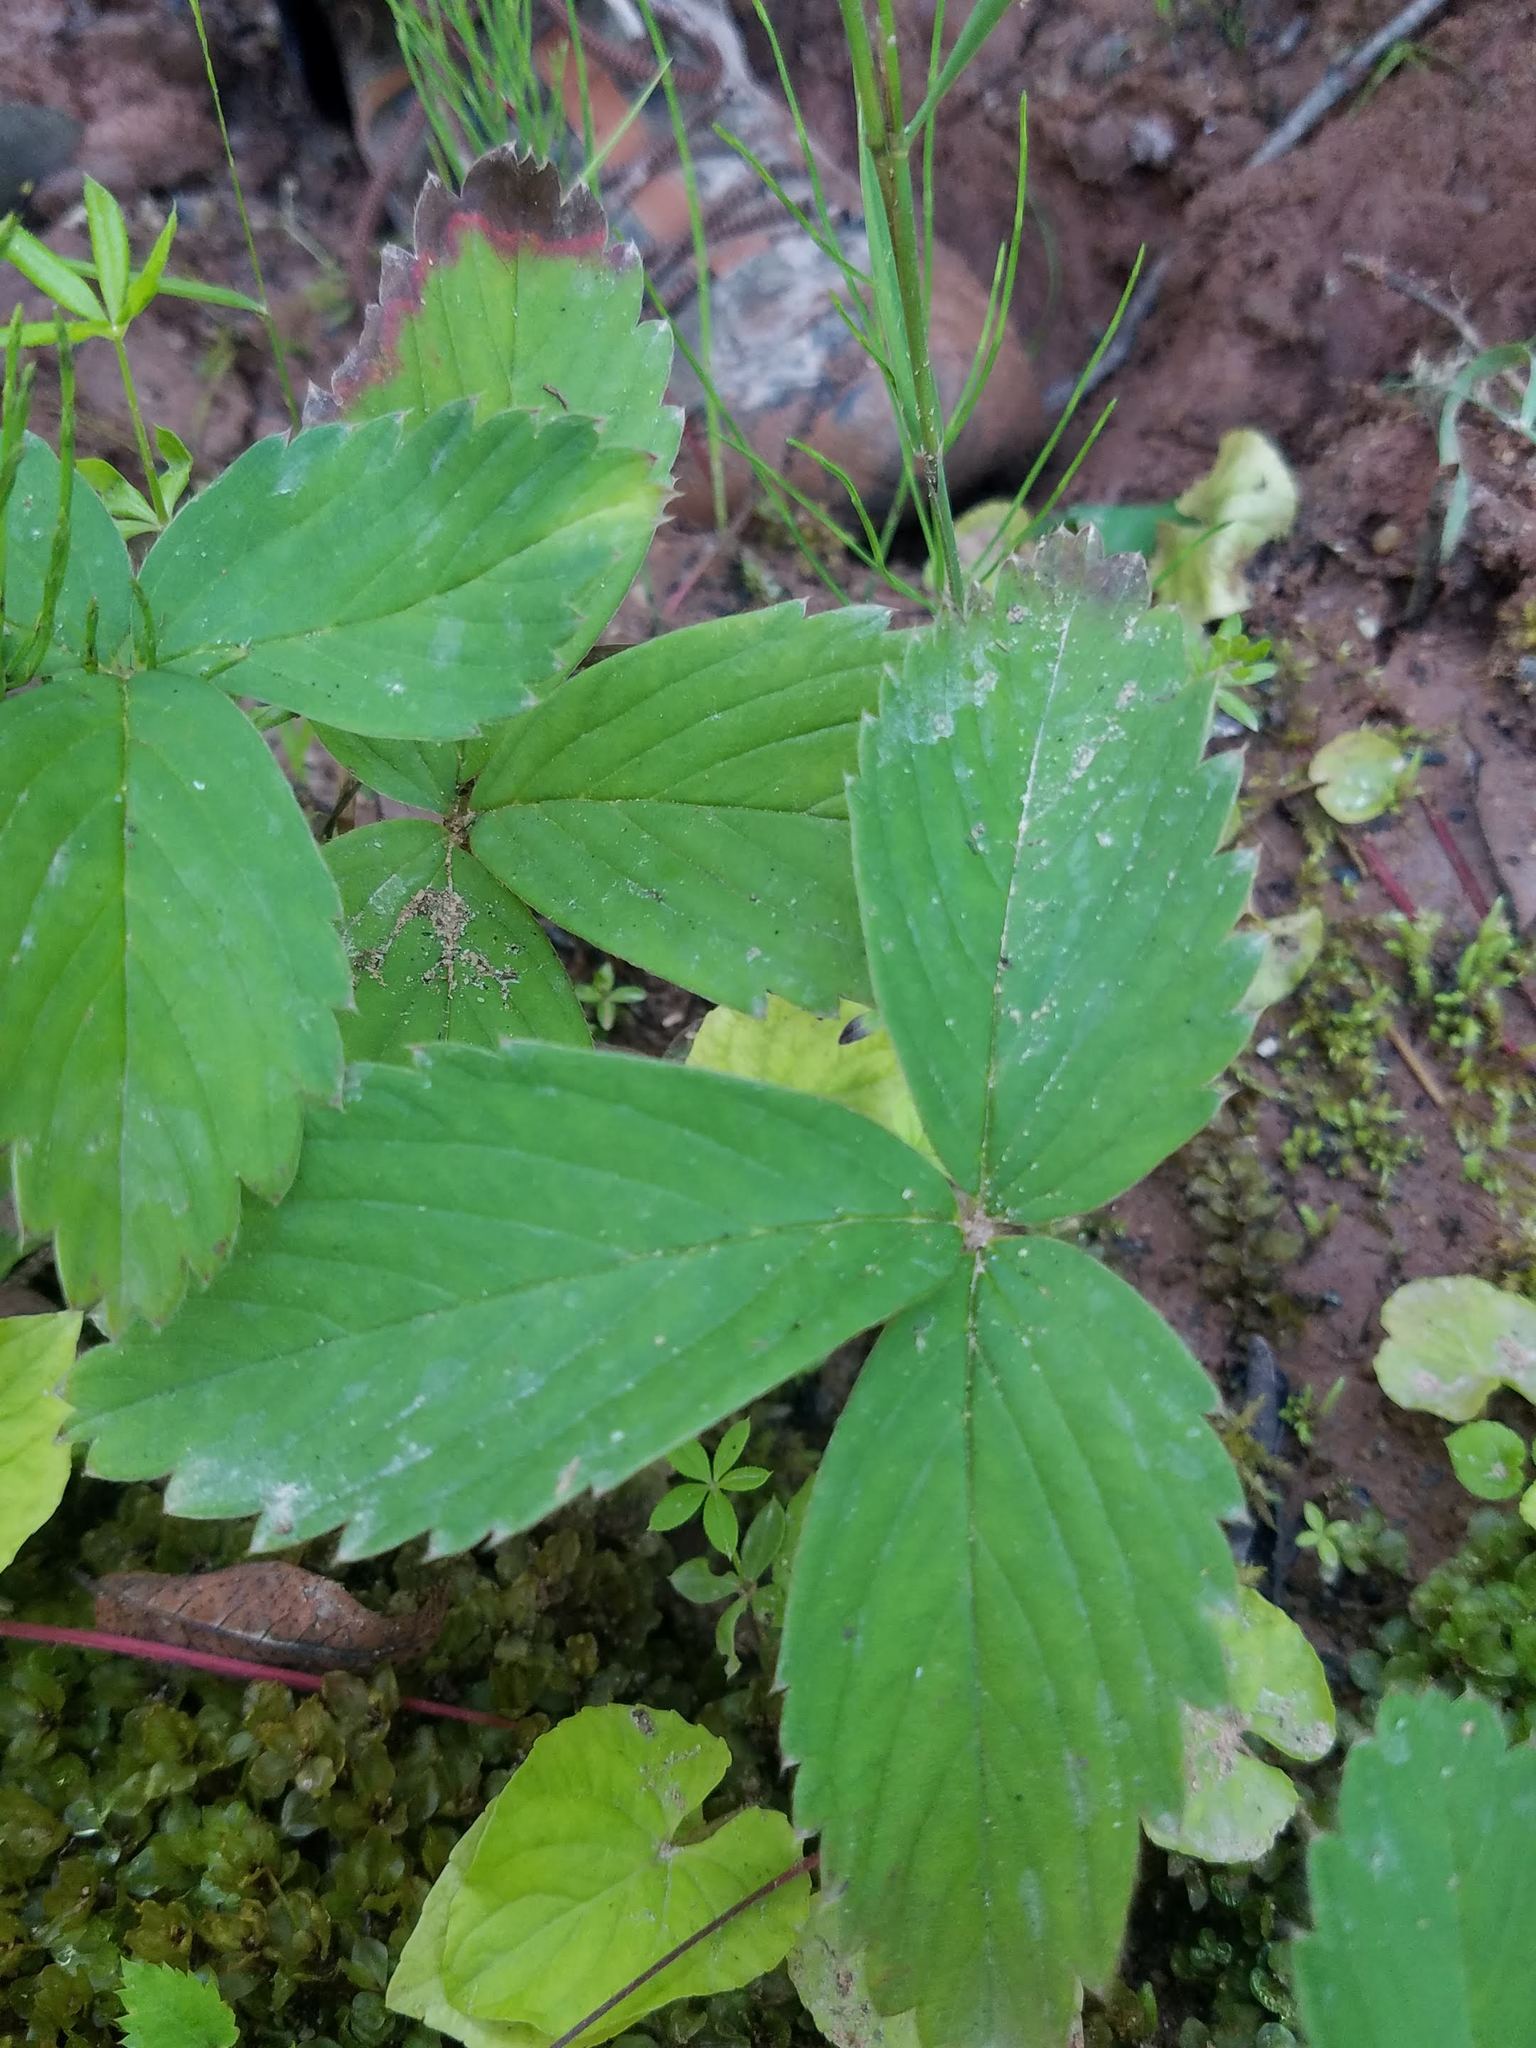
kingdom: Plantae
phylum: Tracheophyta
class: Magnoliopsida
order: Rosales
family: Rosaceae
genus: Fragaria
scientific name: Fragaria virginiana
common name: Thickleaved wild strawberry
